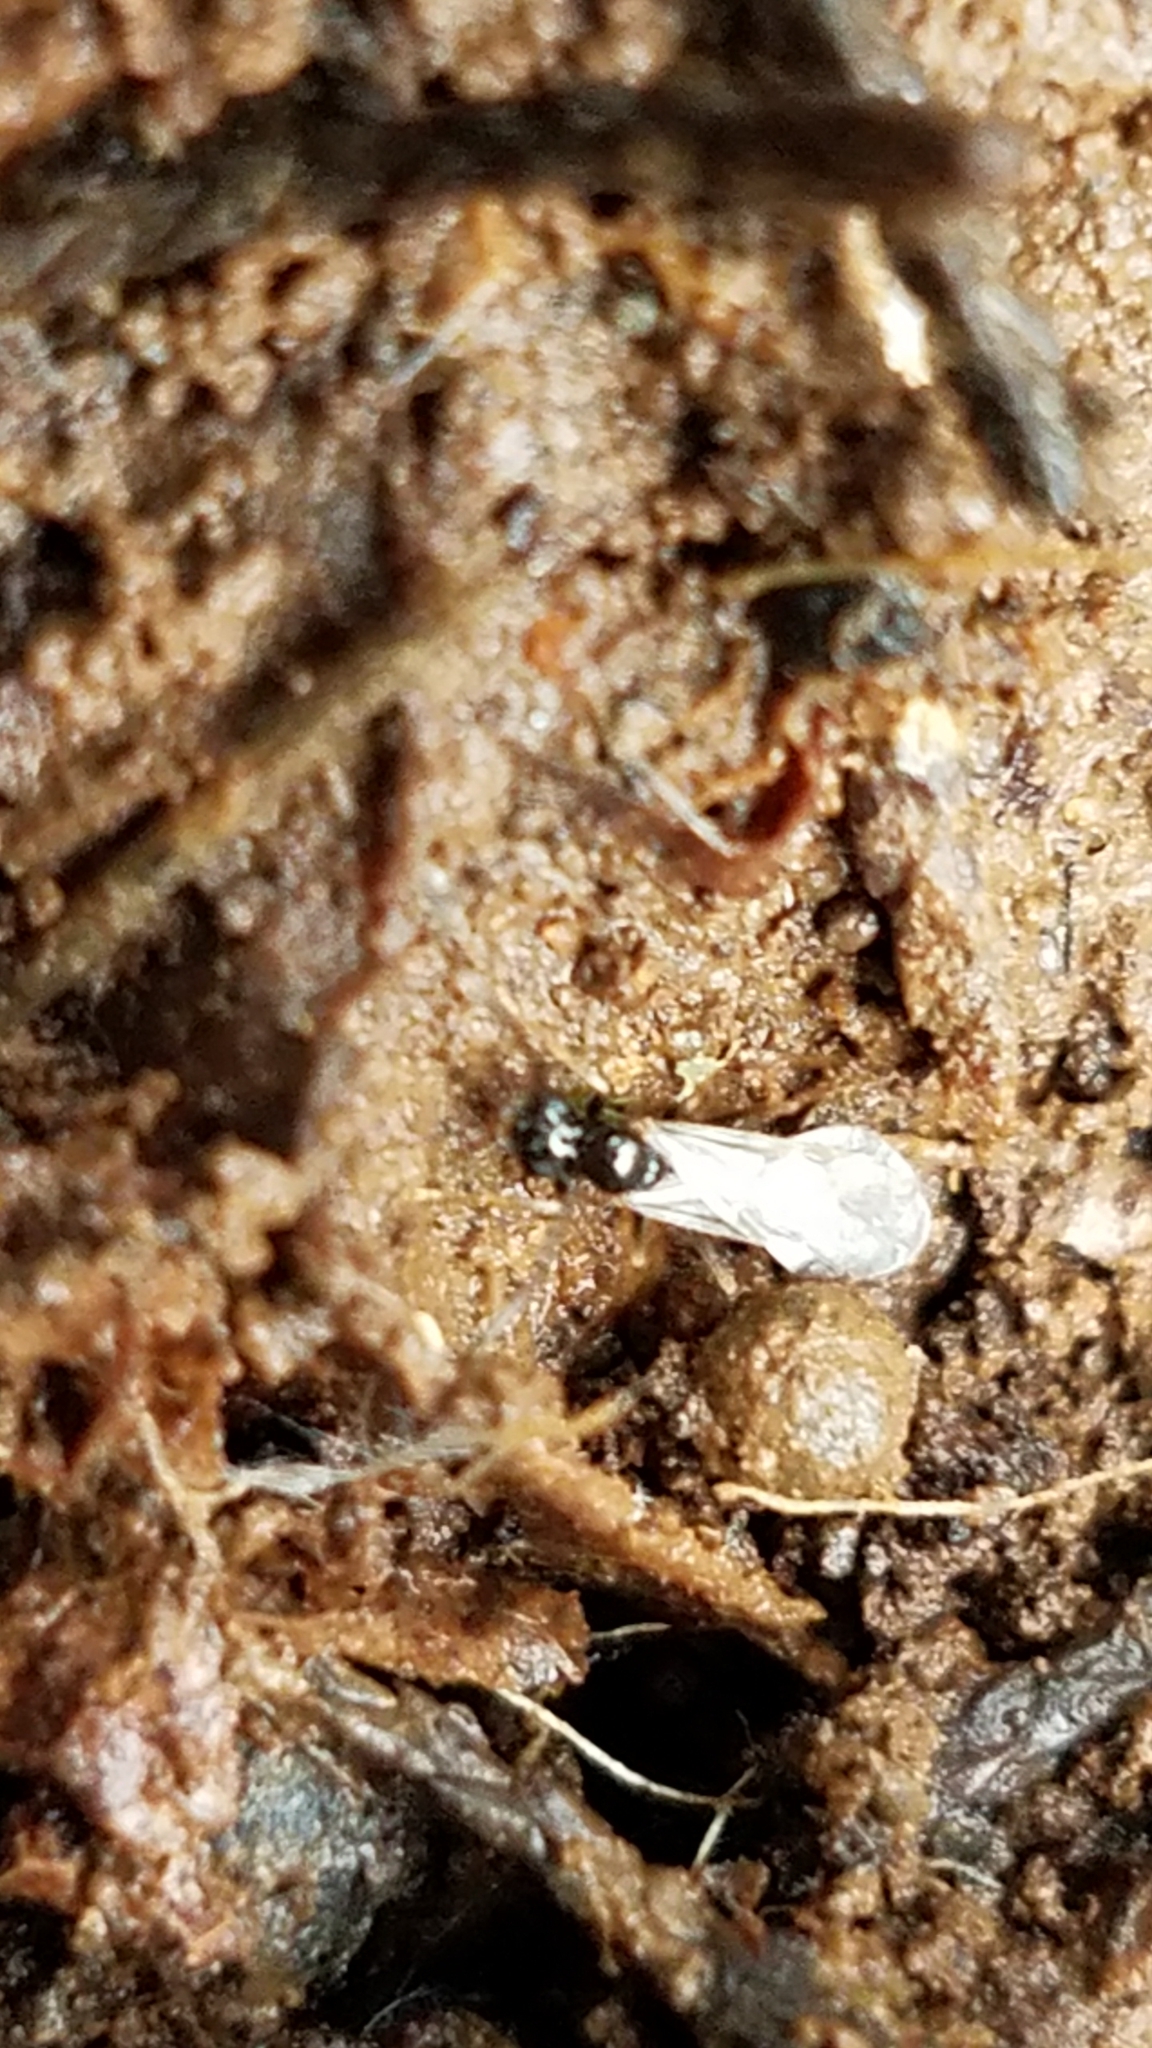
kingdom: Animalia
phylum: Arthropoda
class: Insecta
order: Hymenoptera
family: Formicidae
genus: Prenolepis
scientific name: Prenolepis imparis
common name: Small honey ant
